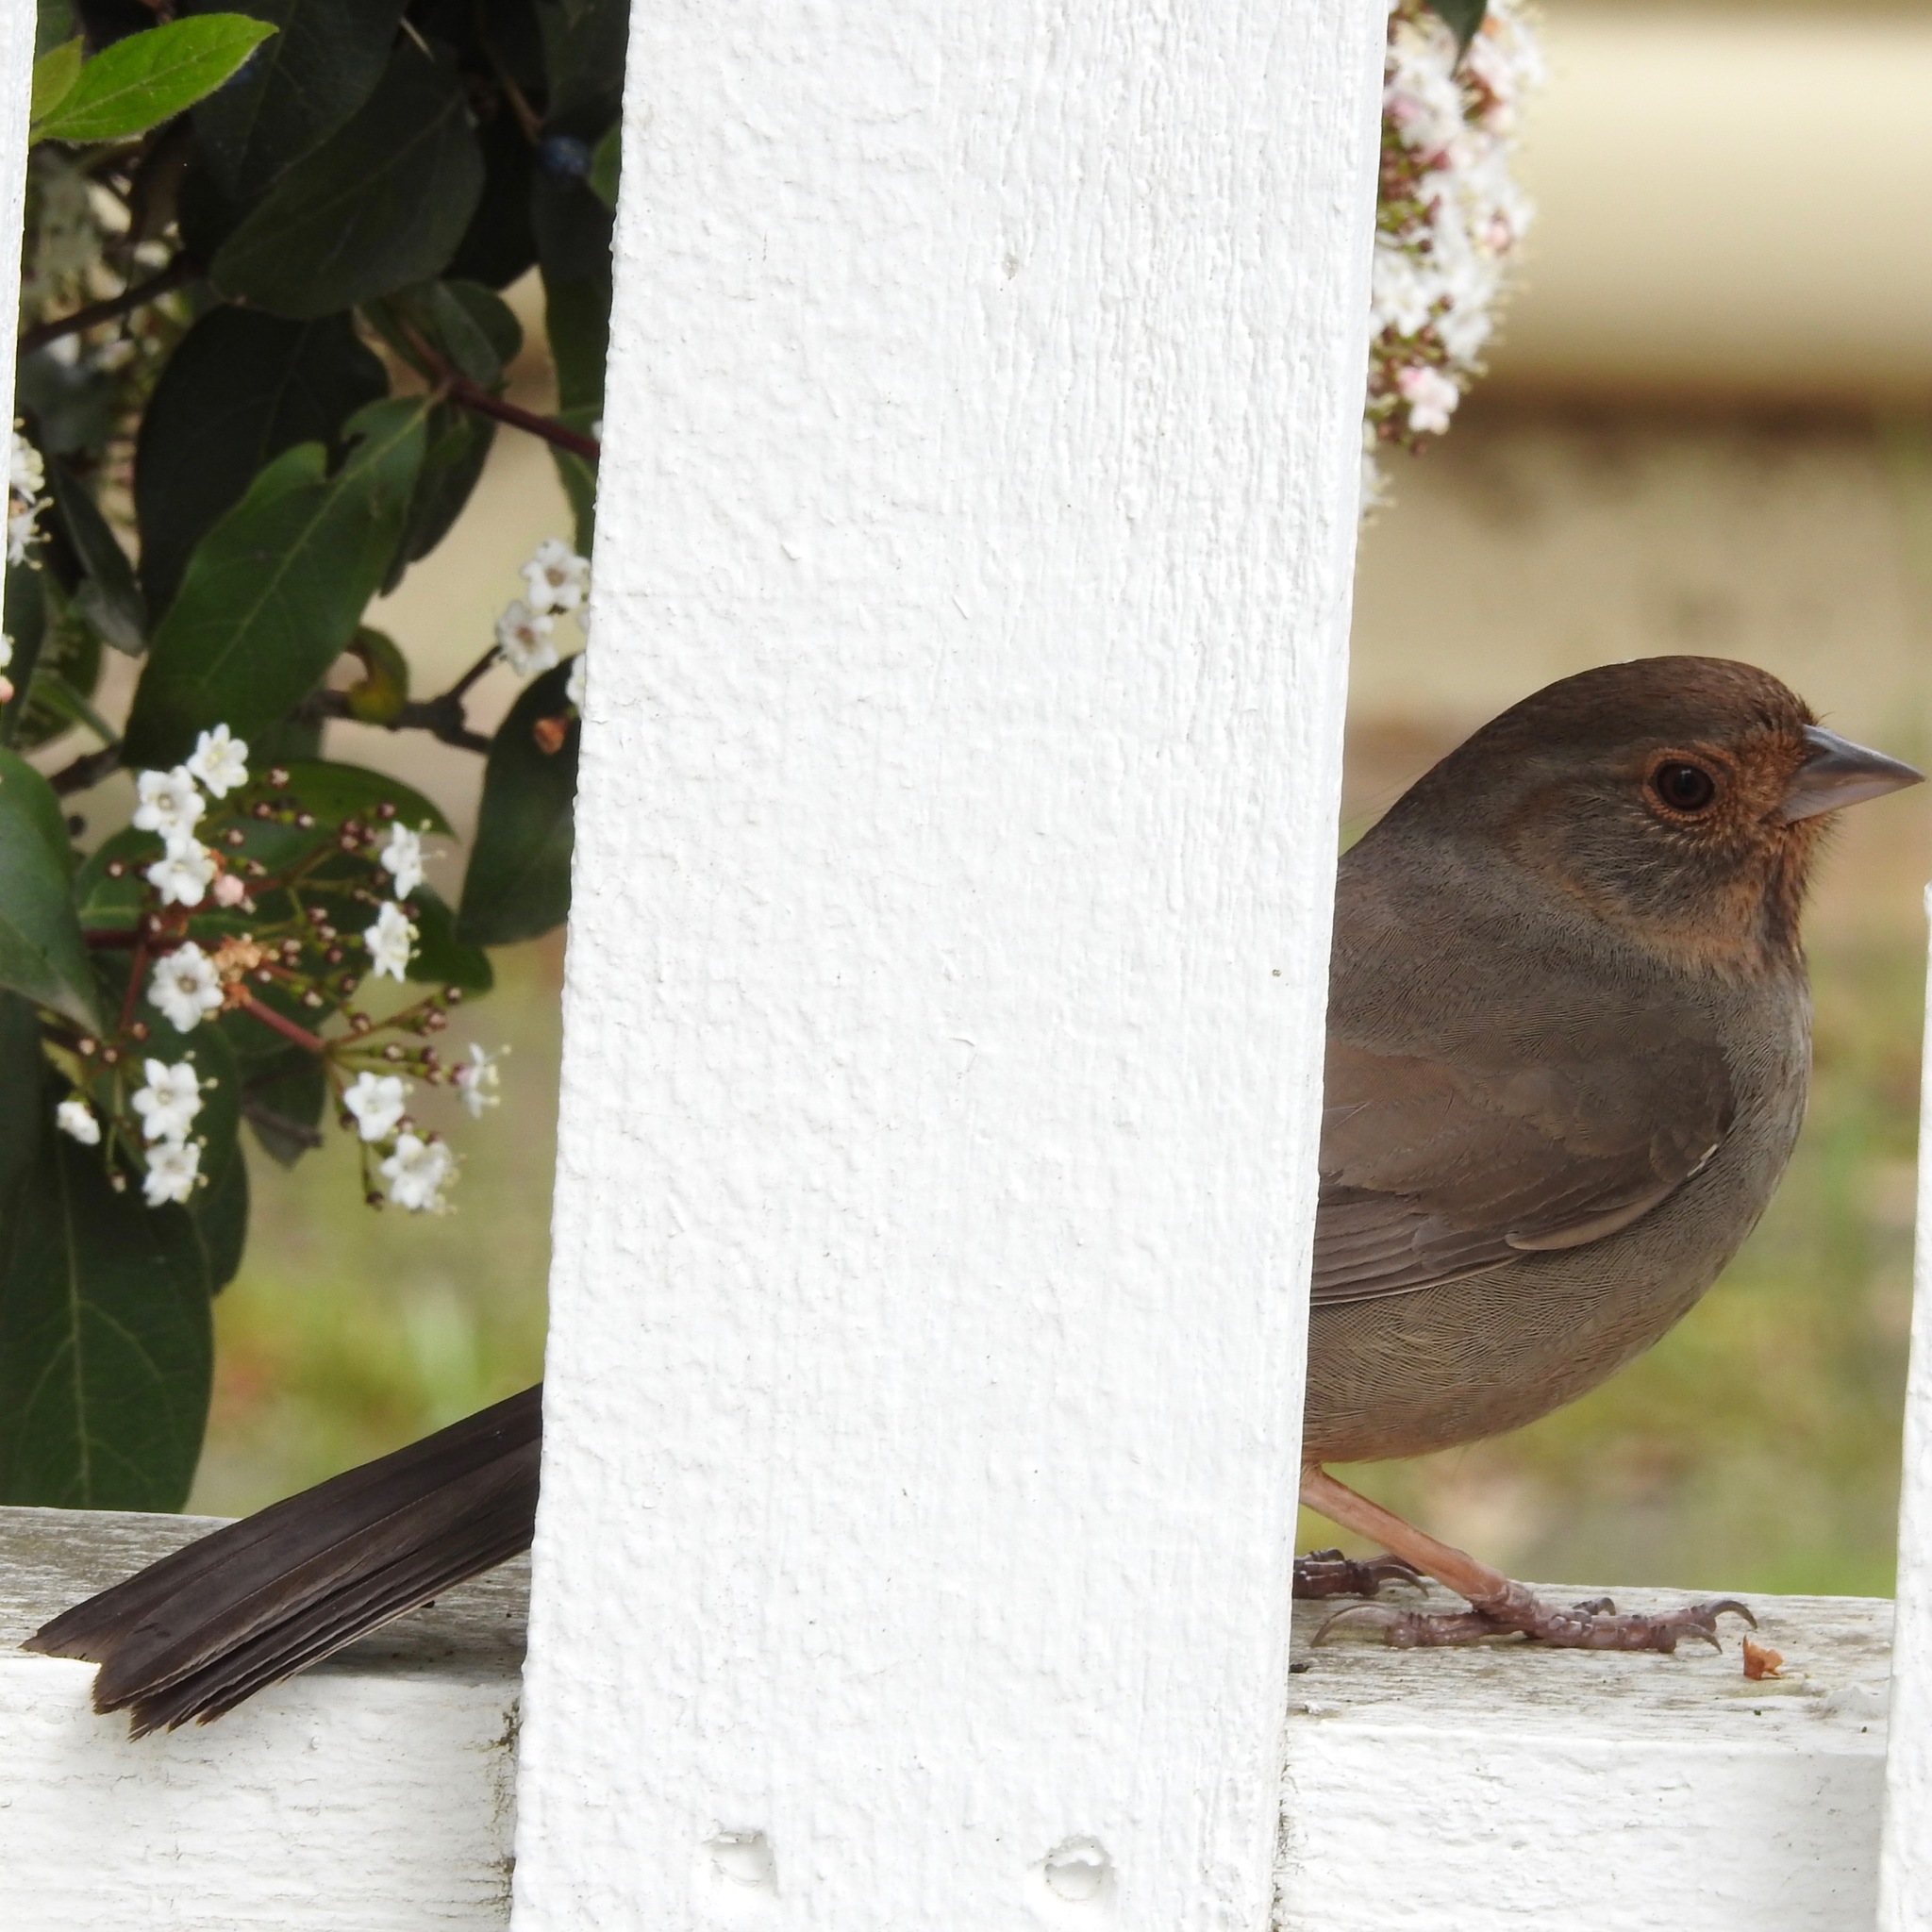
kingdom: Animalia
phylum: Chordata
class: Aves
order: Passeriformes
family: Passerellidae
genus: Melozone
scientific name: Melozone crissalis
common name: California towhee
